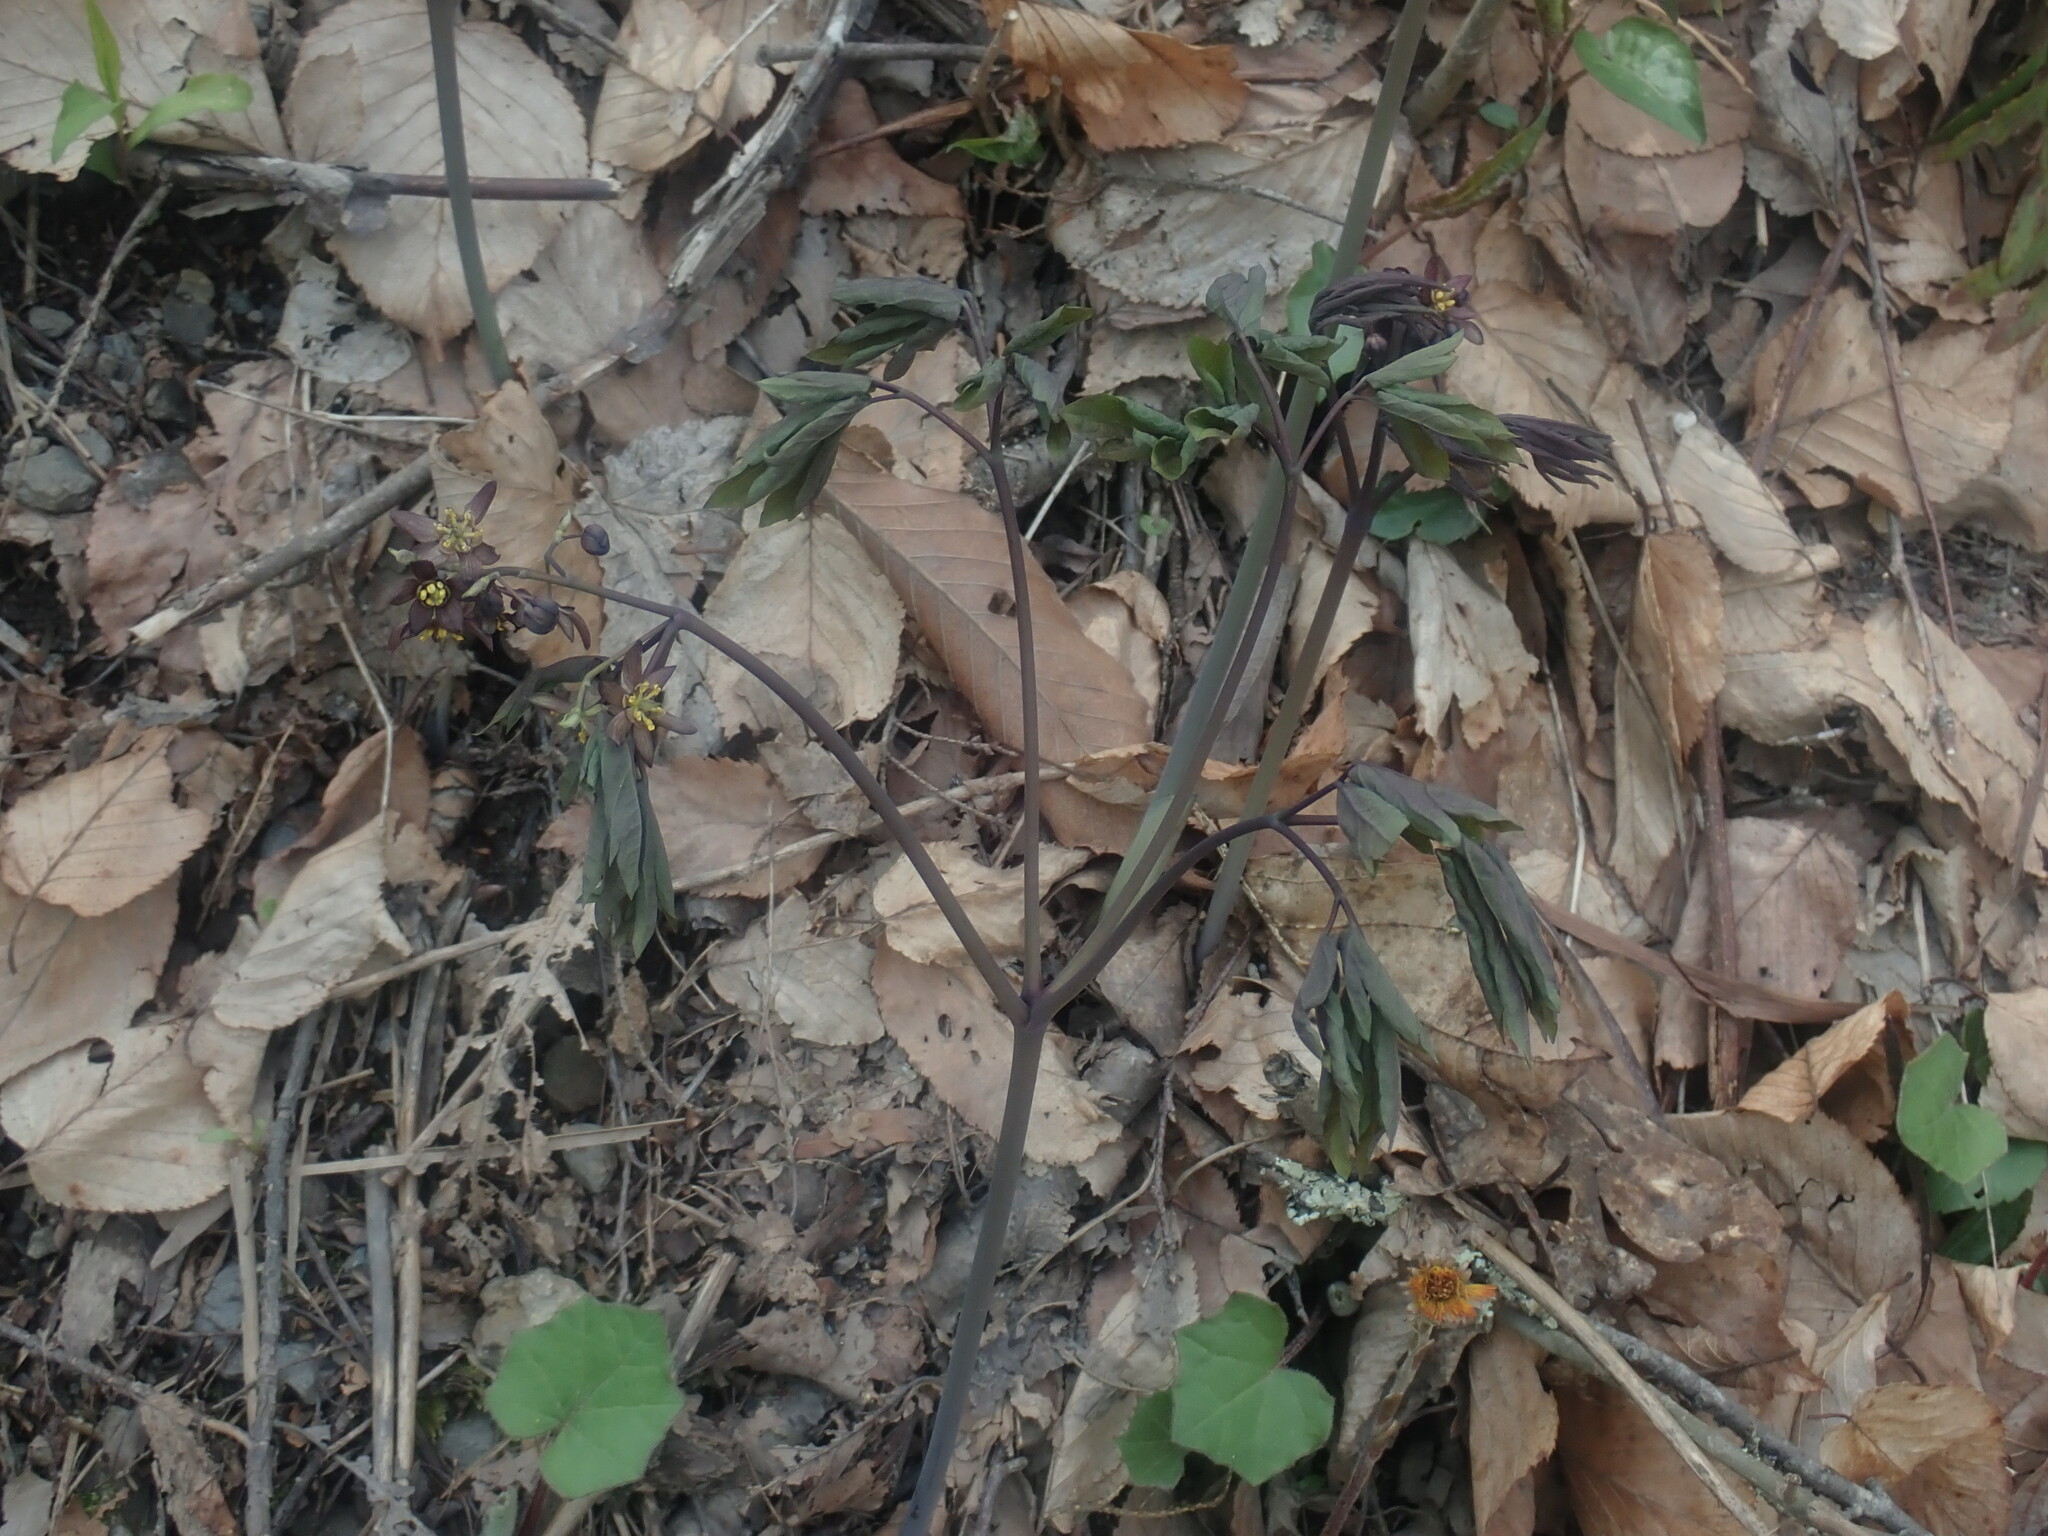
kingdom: Plantae
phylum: Tracheophyta
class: Magnoliopsida
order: Ranunculales
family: Berberidaceae
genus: Caulophyllum
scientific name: Caulophyllum giganteum
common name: Blue cohosh
